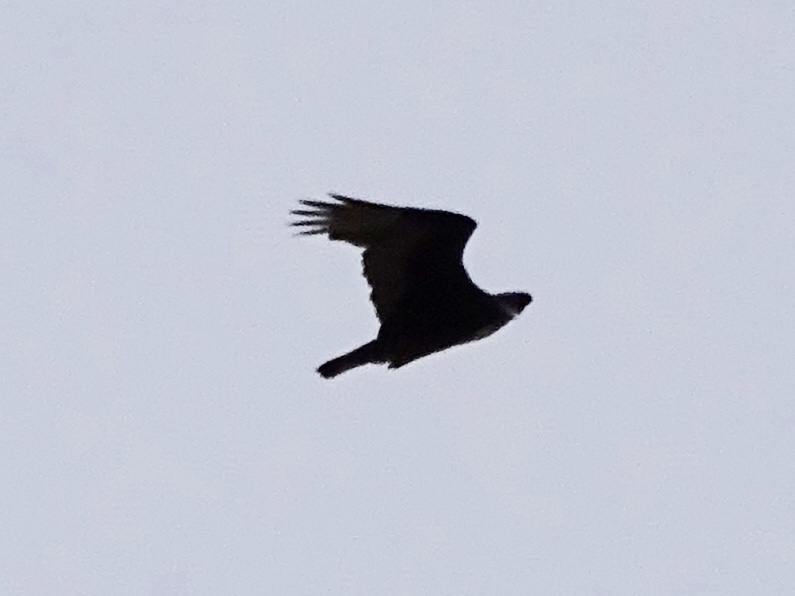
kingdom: Animalia
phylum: Chordata
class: Aves
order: Accipitriformes
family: Cathartidae
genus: Cathartes
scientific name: Cathartes aura
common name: Turkey vulture
